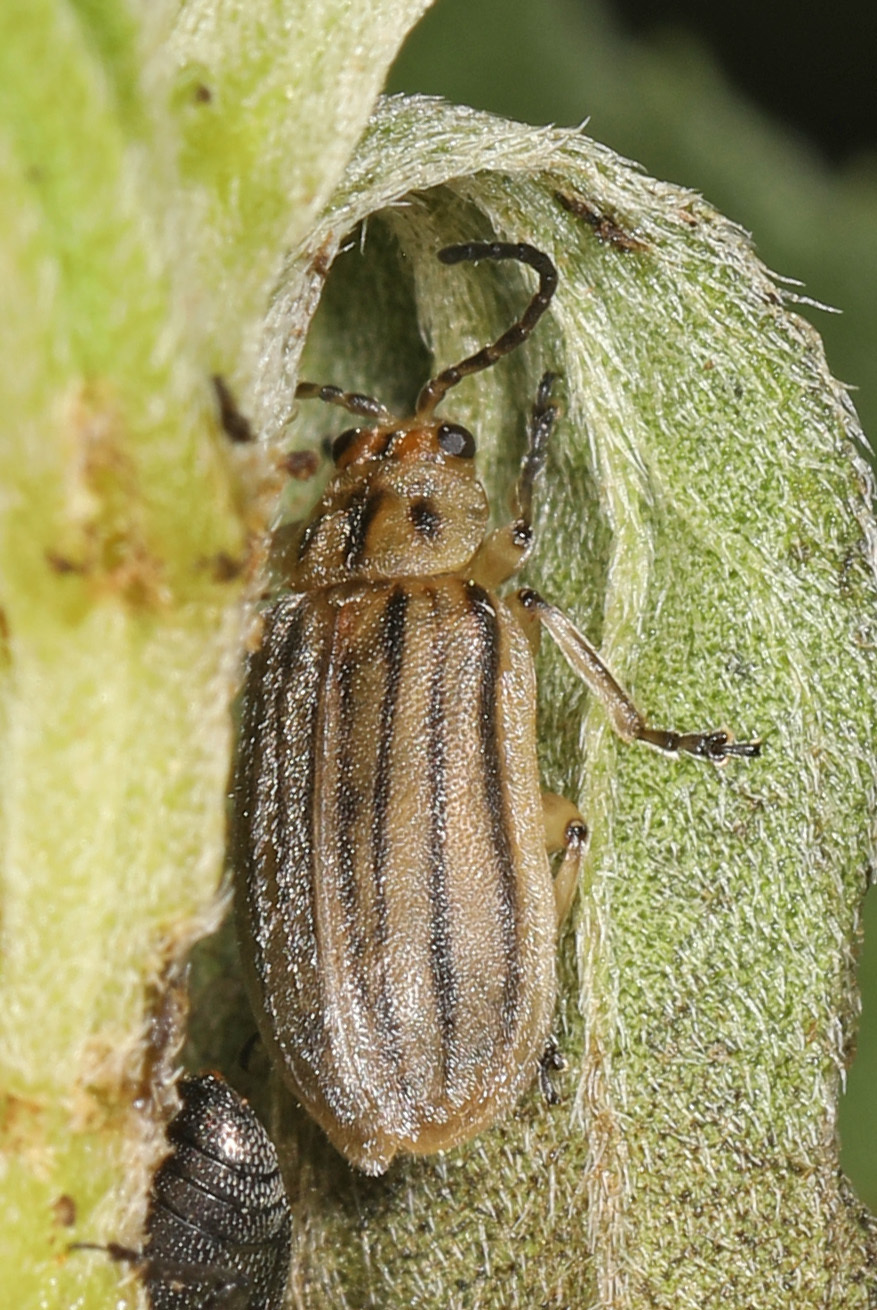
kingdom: Animalia
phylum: Arthropoda
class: Insecta
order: Coleoptera
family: Chrysomelidae
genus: Ophraella
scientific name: Ophraella notulata
